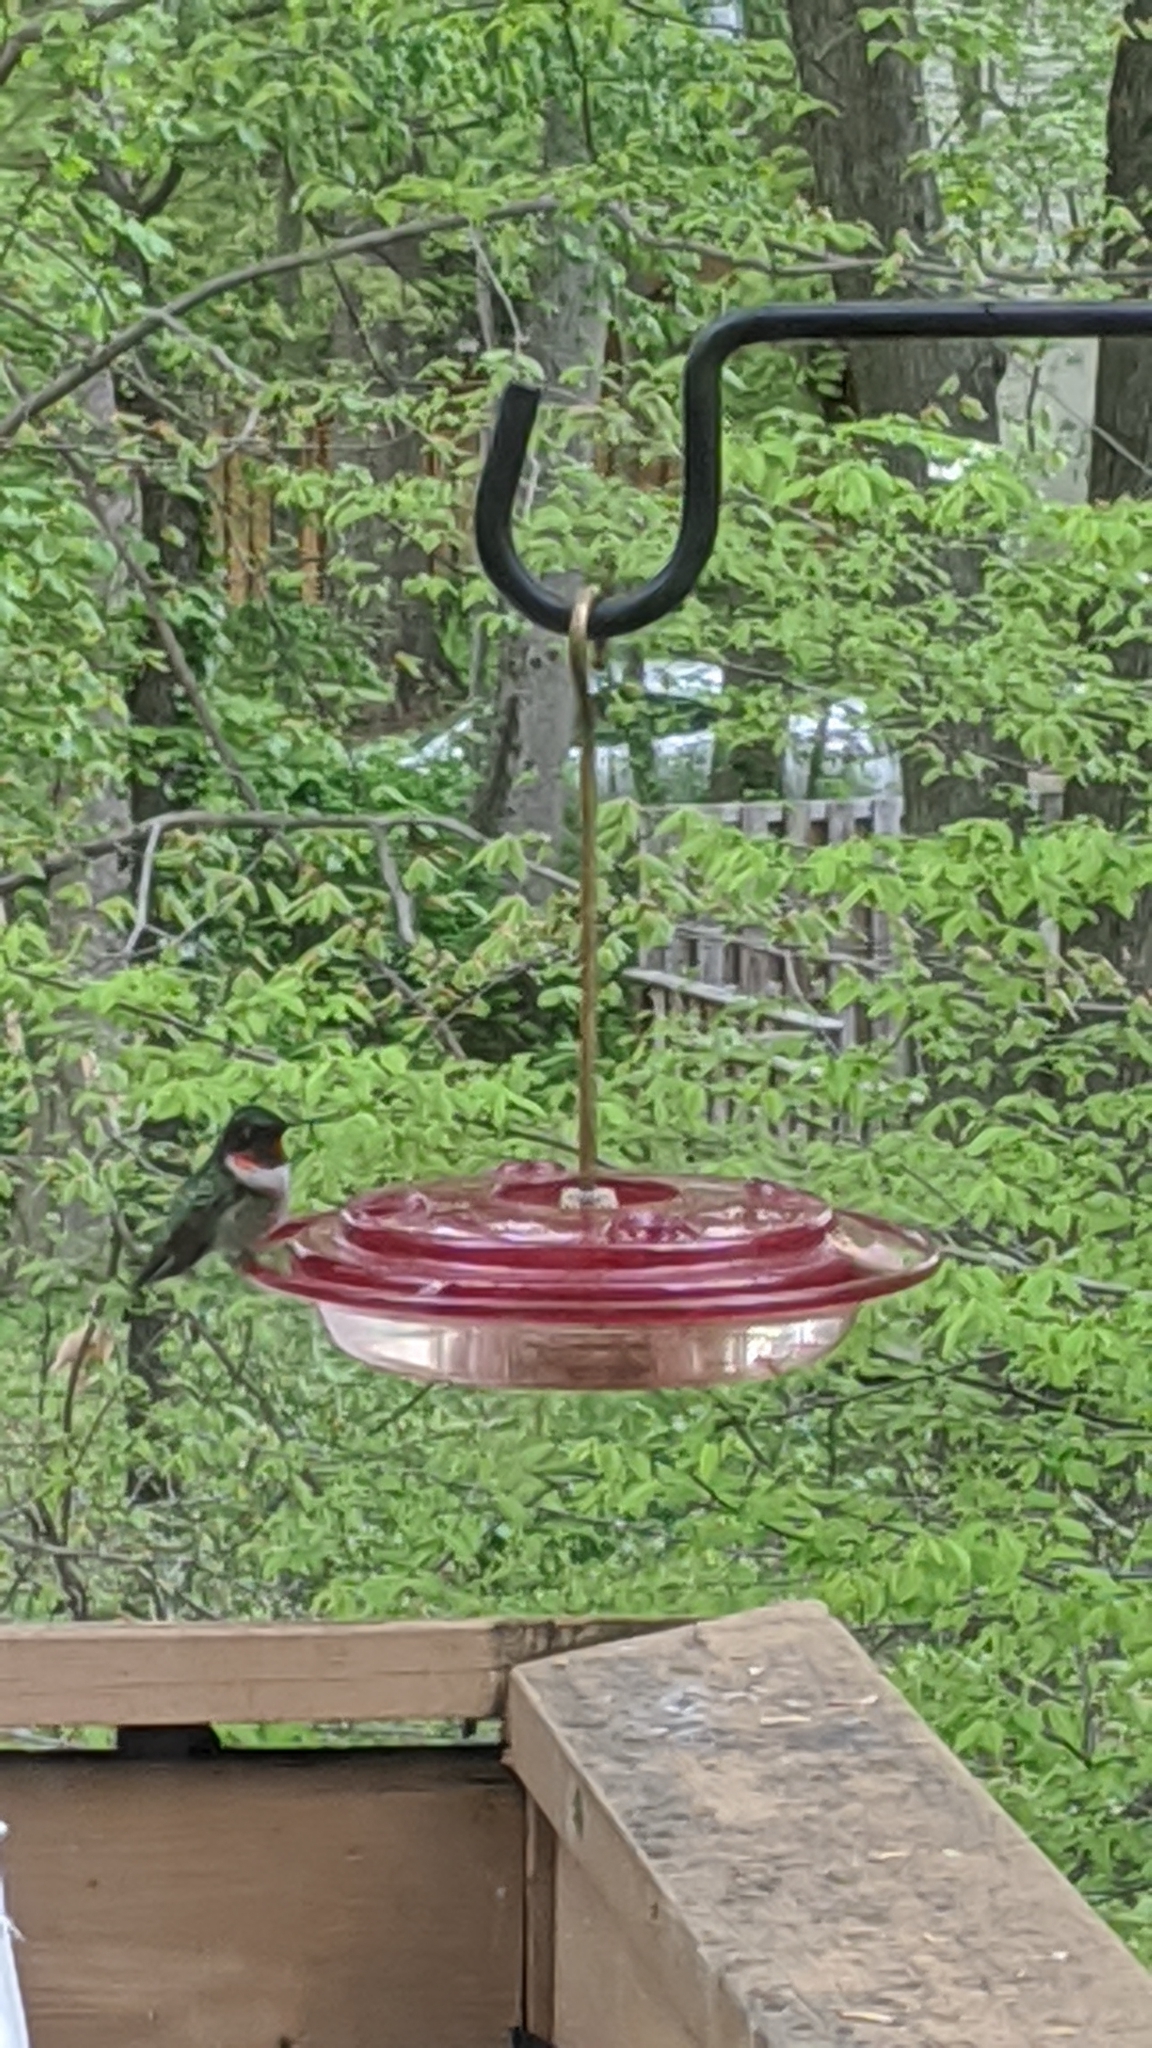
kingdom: Animalia
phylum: Chordata
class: Aves
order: Apodiformes
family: Trochilidae
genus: Archilochus
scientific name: Archilochus colubris
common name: Ruby-throated hummingbird
